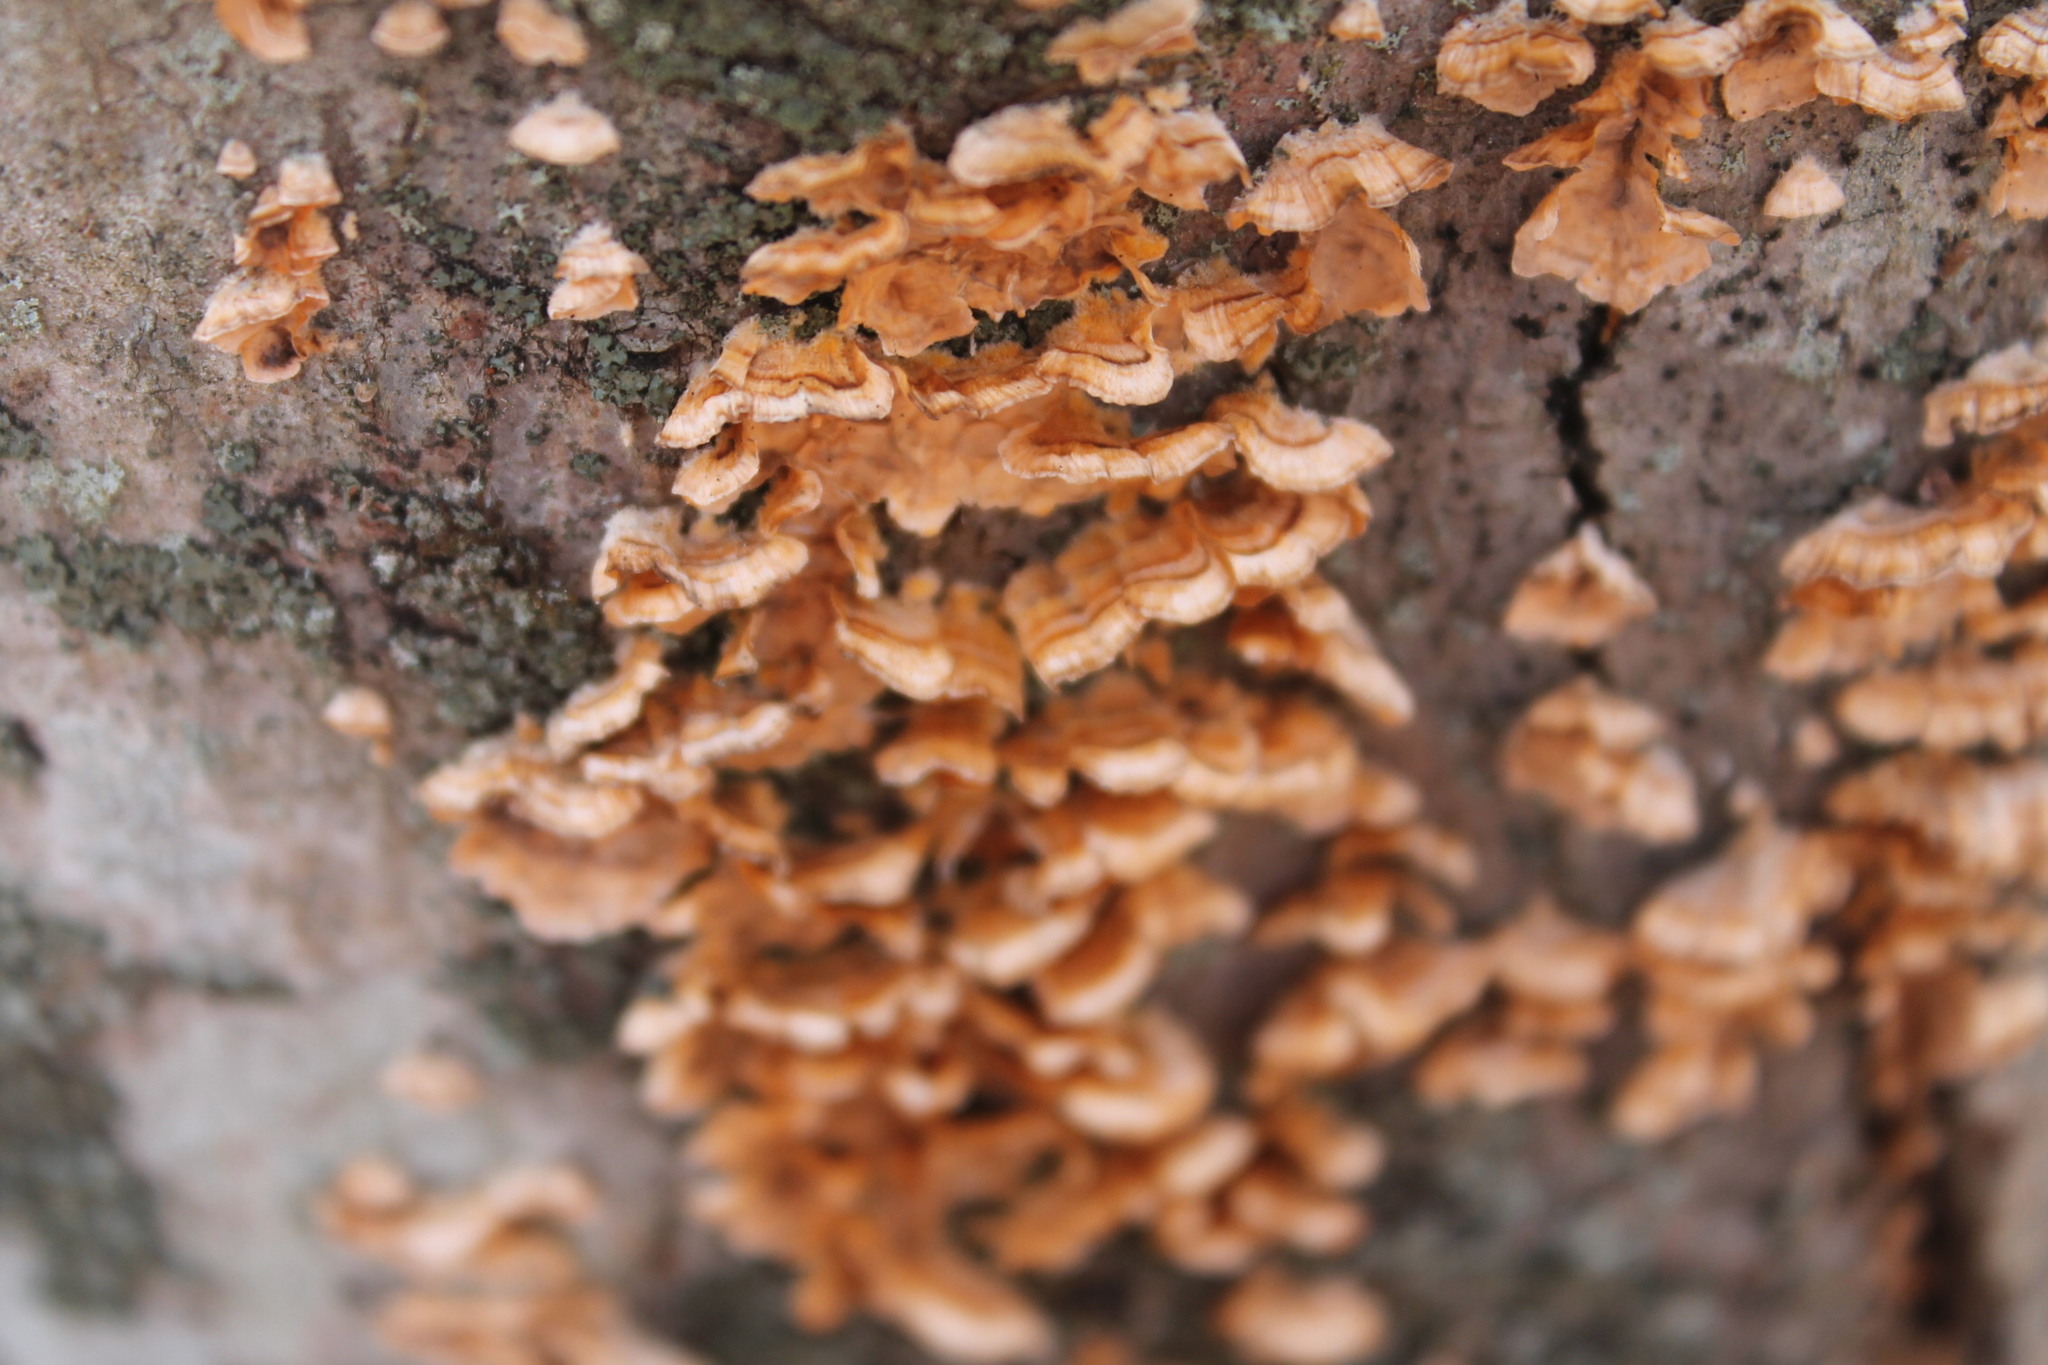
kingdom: Fungi
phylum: Basidiomycota
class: Agaricomycetes
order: Russulales
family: Stereaceae
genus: Stereum
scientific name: Stereum complicatum
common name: Crowded parchment
